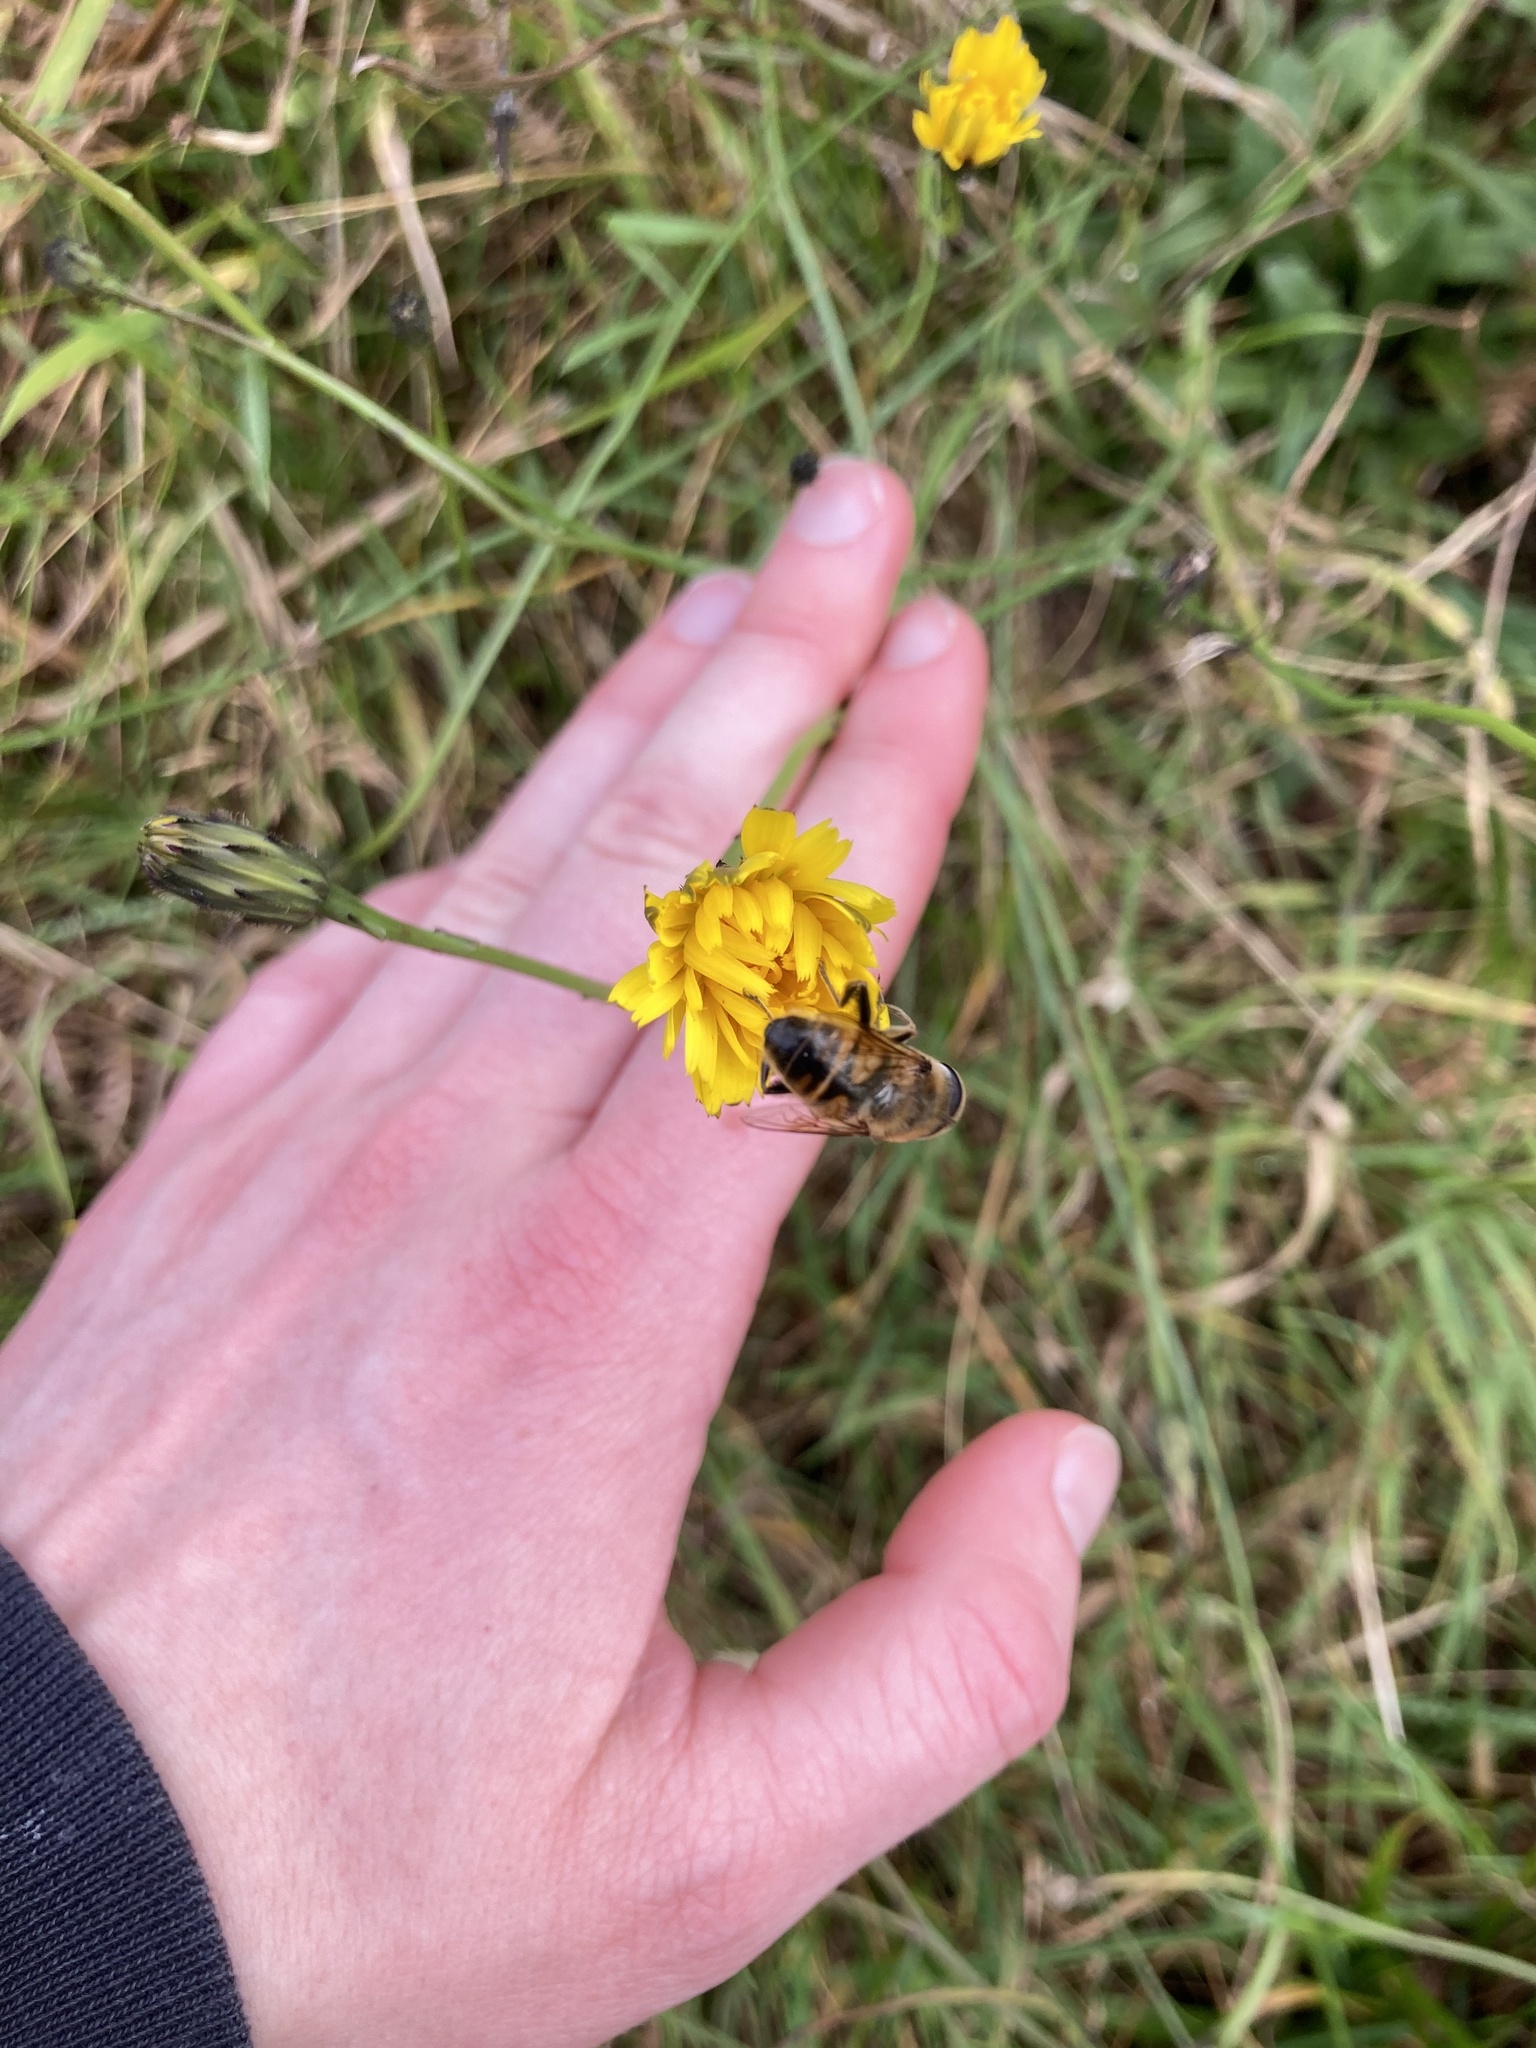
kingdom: Animalia
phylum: Arthropoda
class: Insecta
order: Diptera
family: Syrphidae
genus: Eristalis
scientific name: Eristalis tenax
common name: Drone fly
